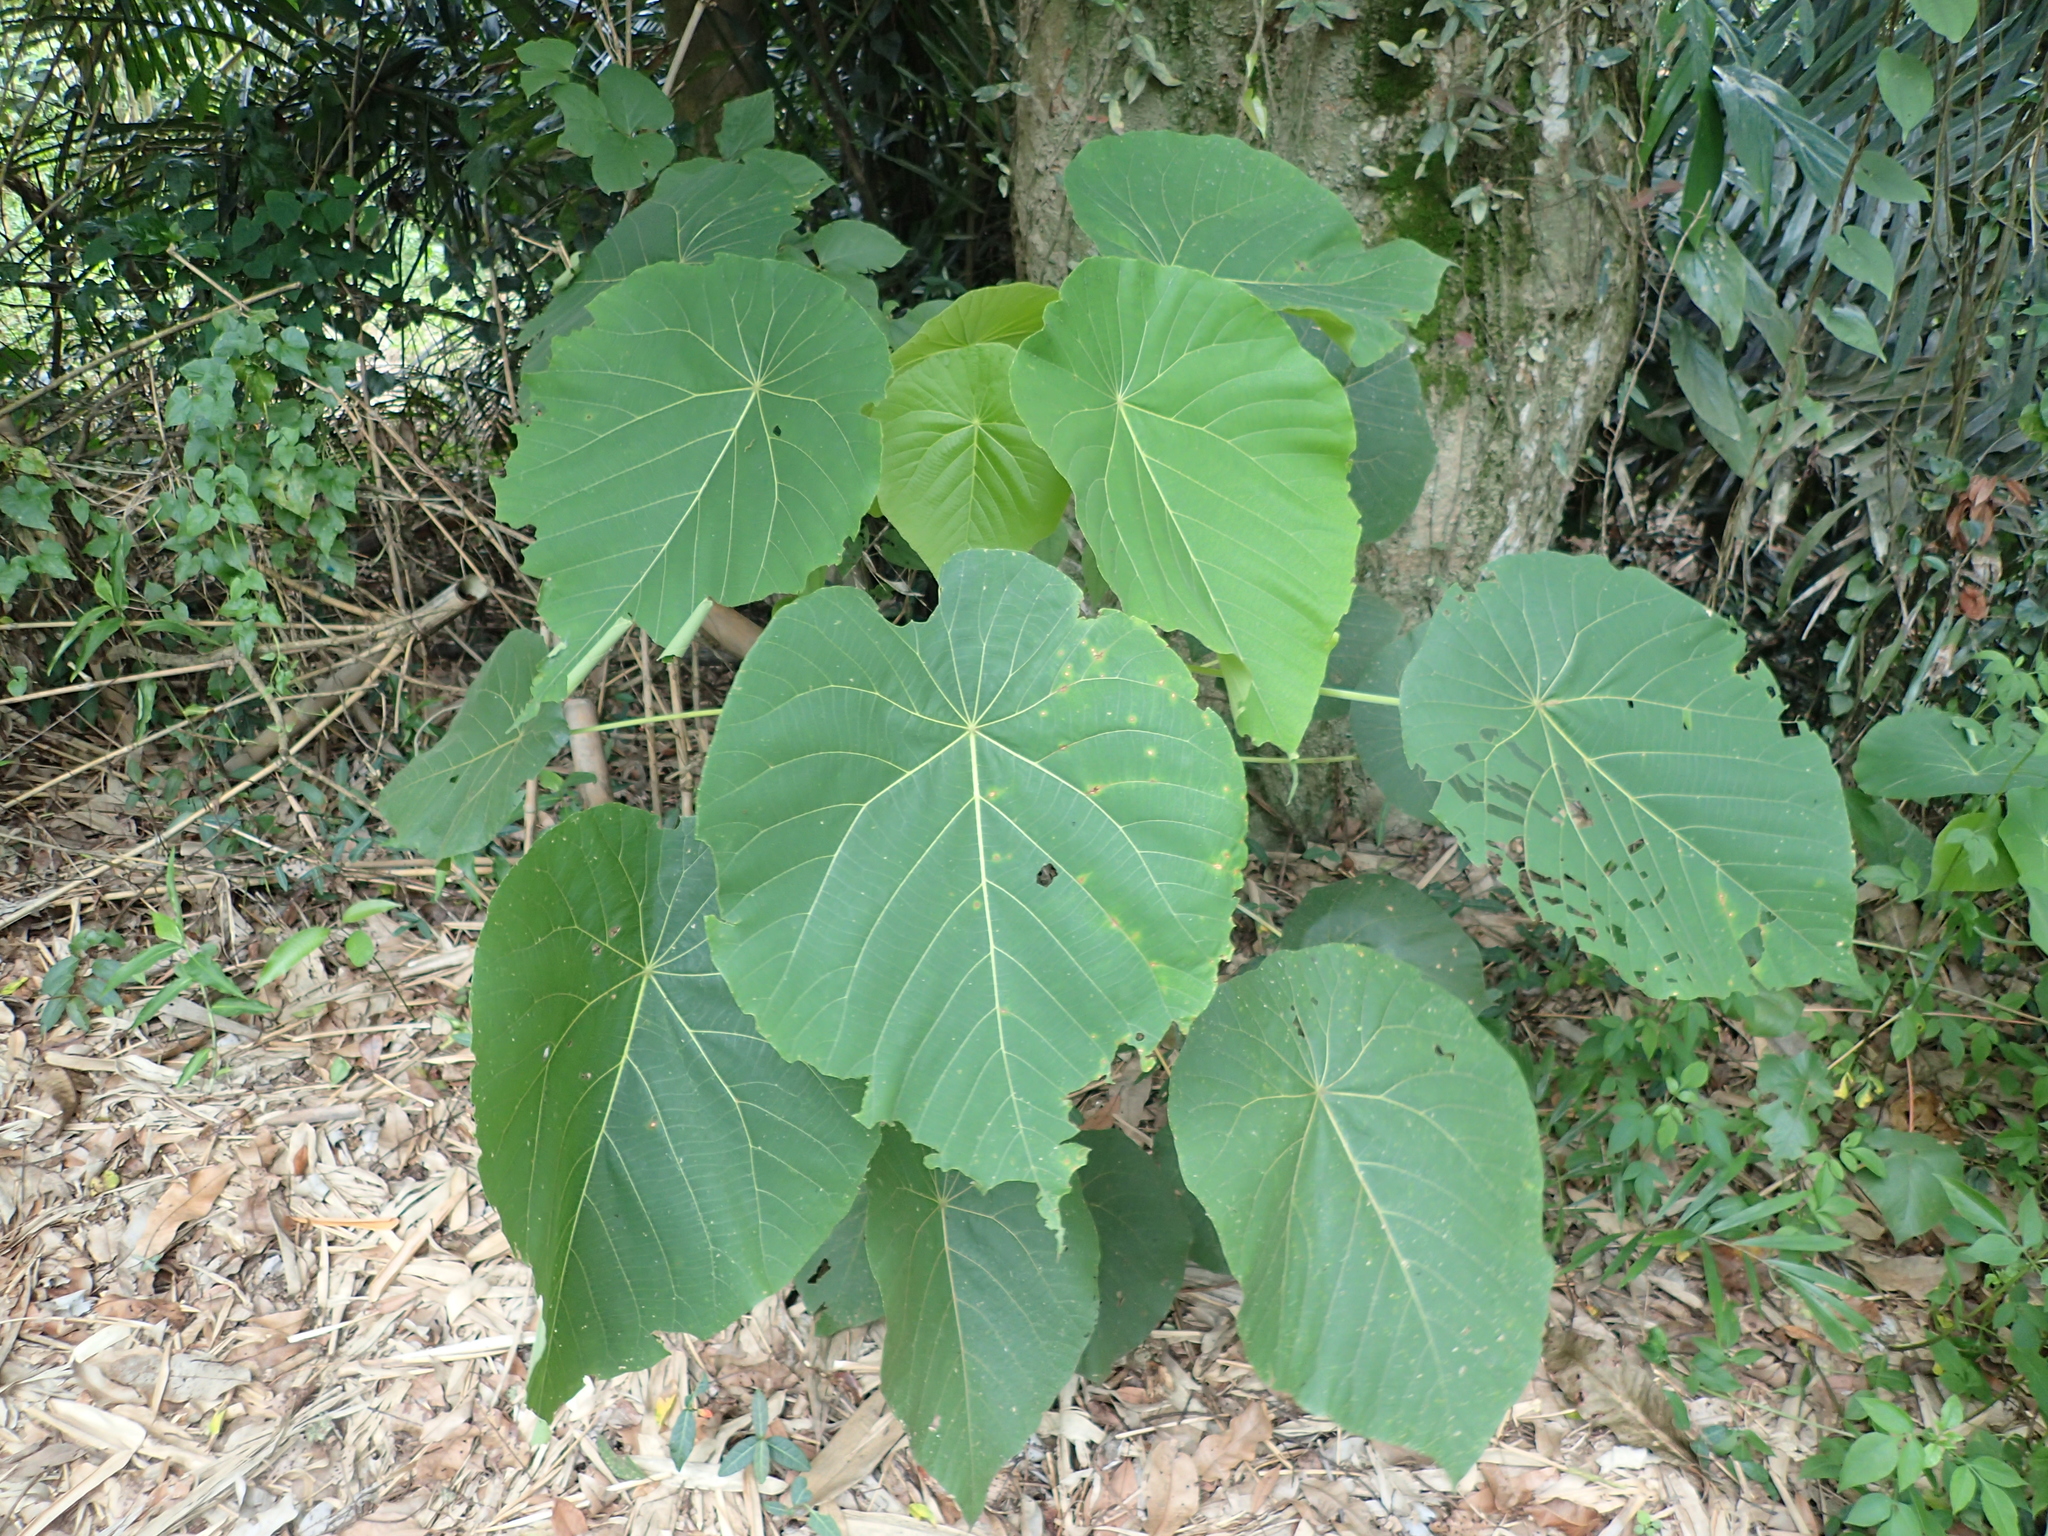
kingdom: Plantae
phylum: Tracheophyta
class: Magnoliopsida
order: Malpighiales
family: Euphorbiaceae
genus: Macaranga
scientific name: Macaranga tanarius
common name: Parasol leaf tree
